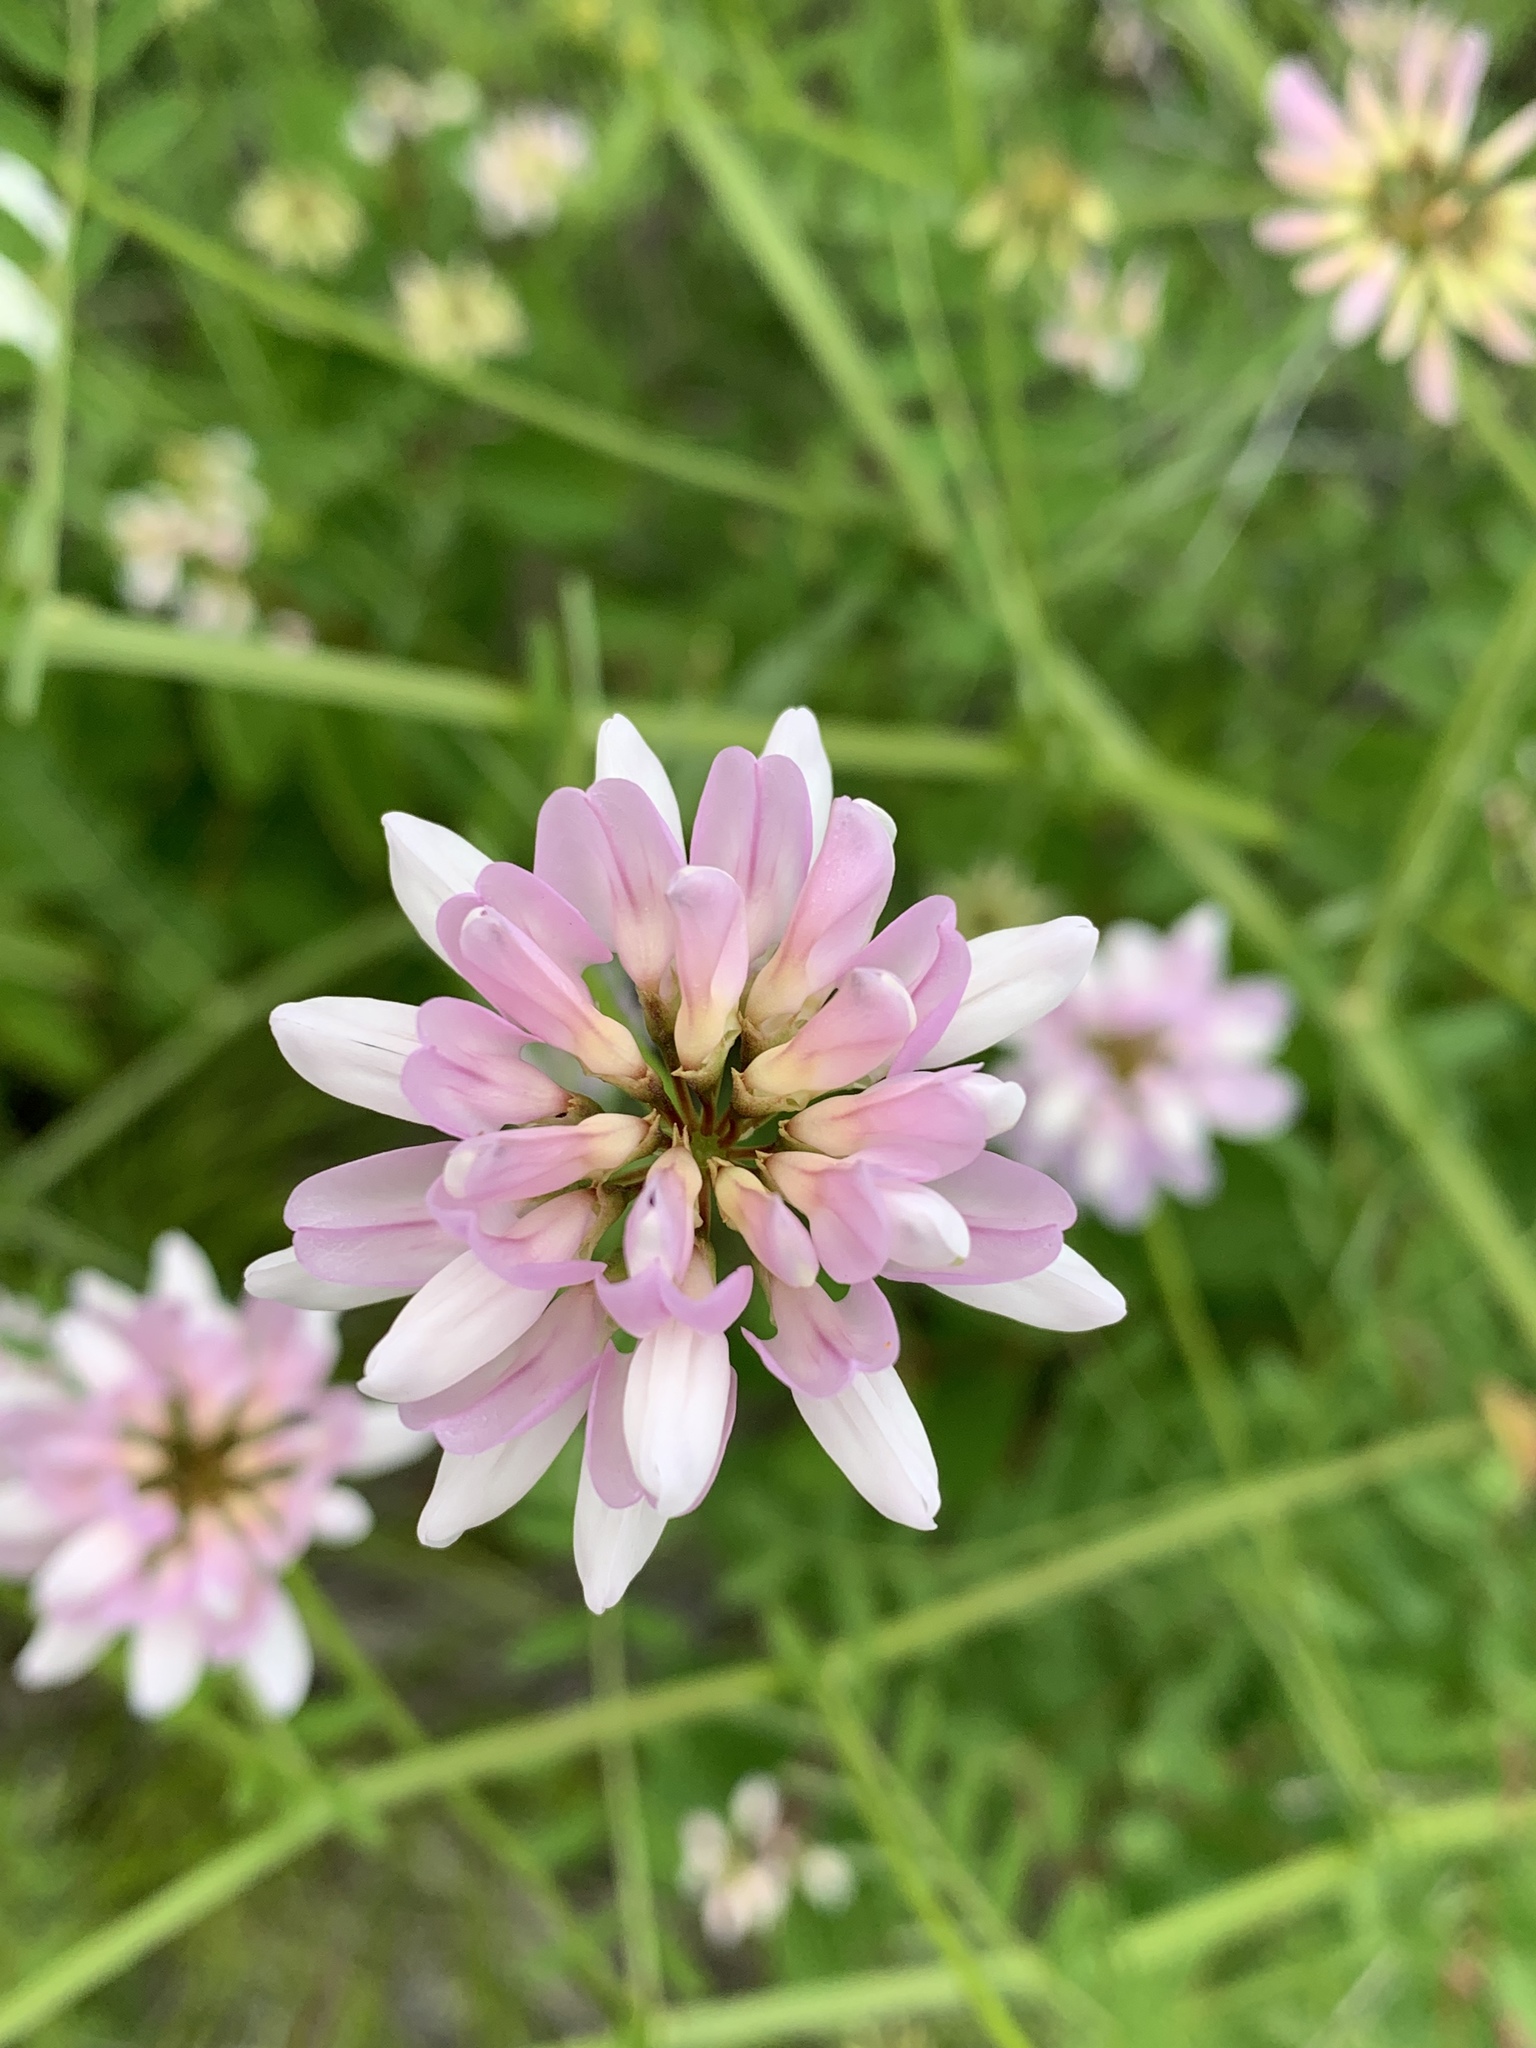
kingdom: Plantae
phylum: Tracheophyta
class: Magnoliopsida
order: Fabales
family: Fabaceae
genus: Coronilla
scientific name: Coronilla varia
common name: Crownvetch
